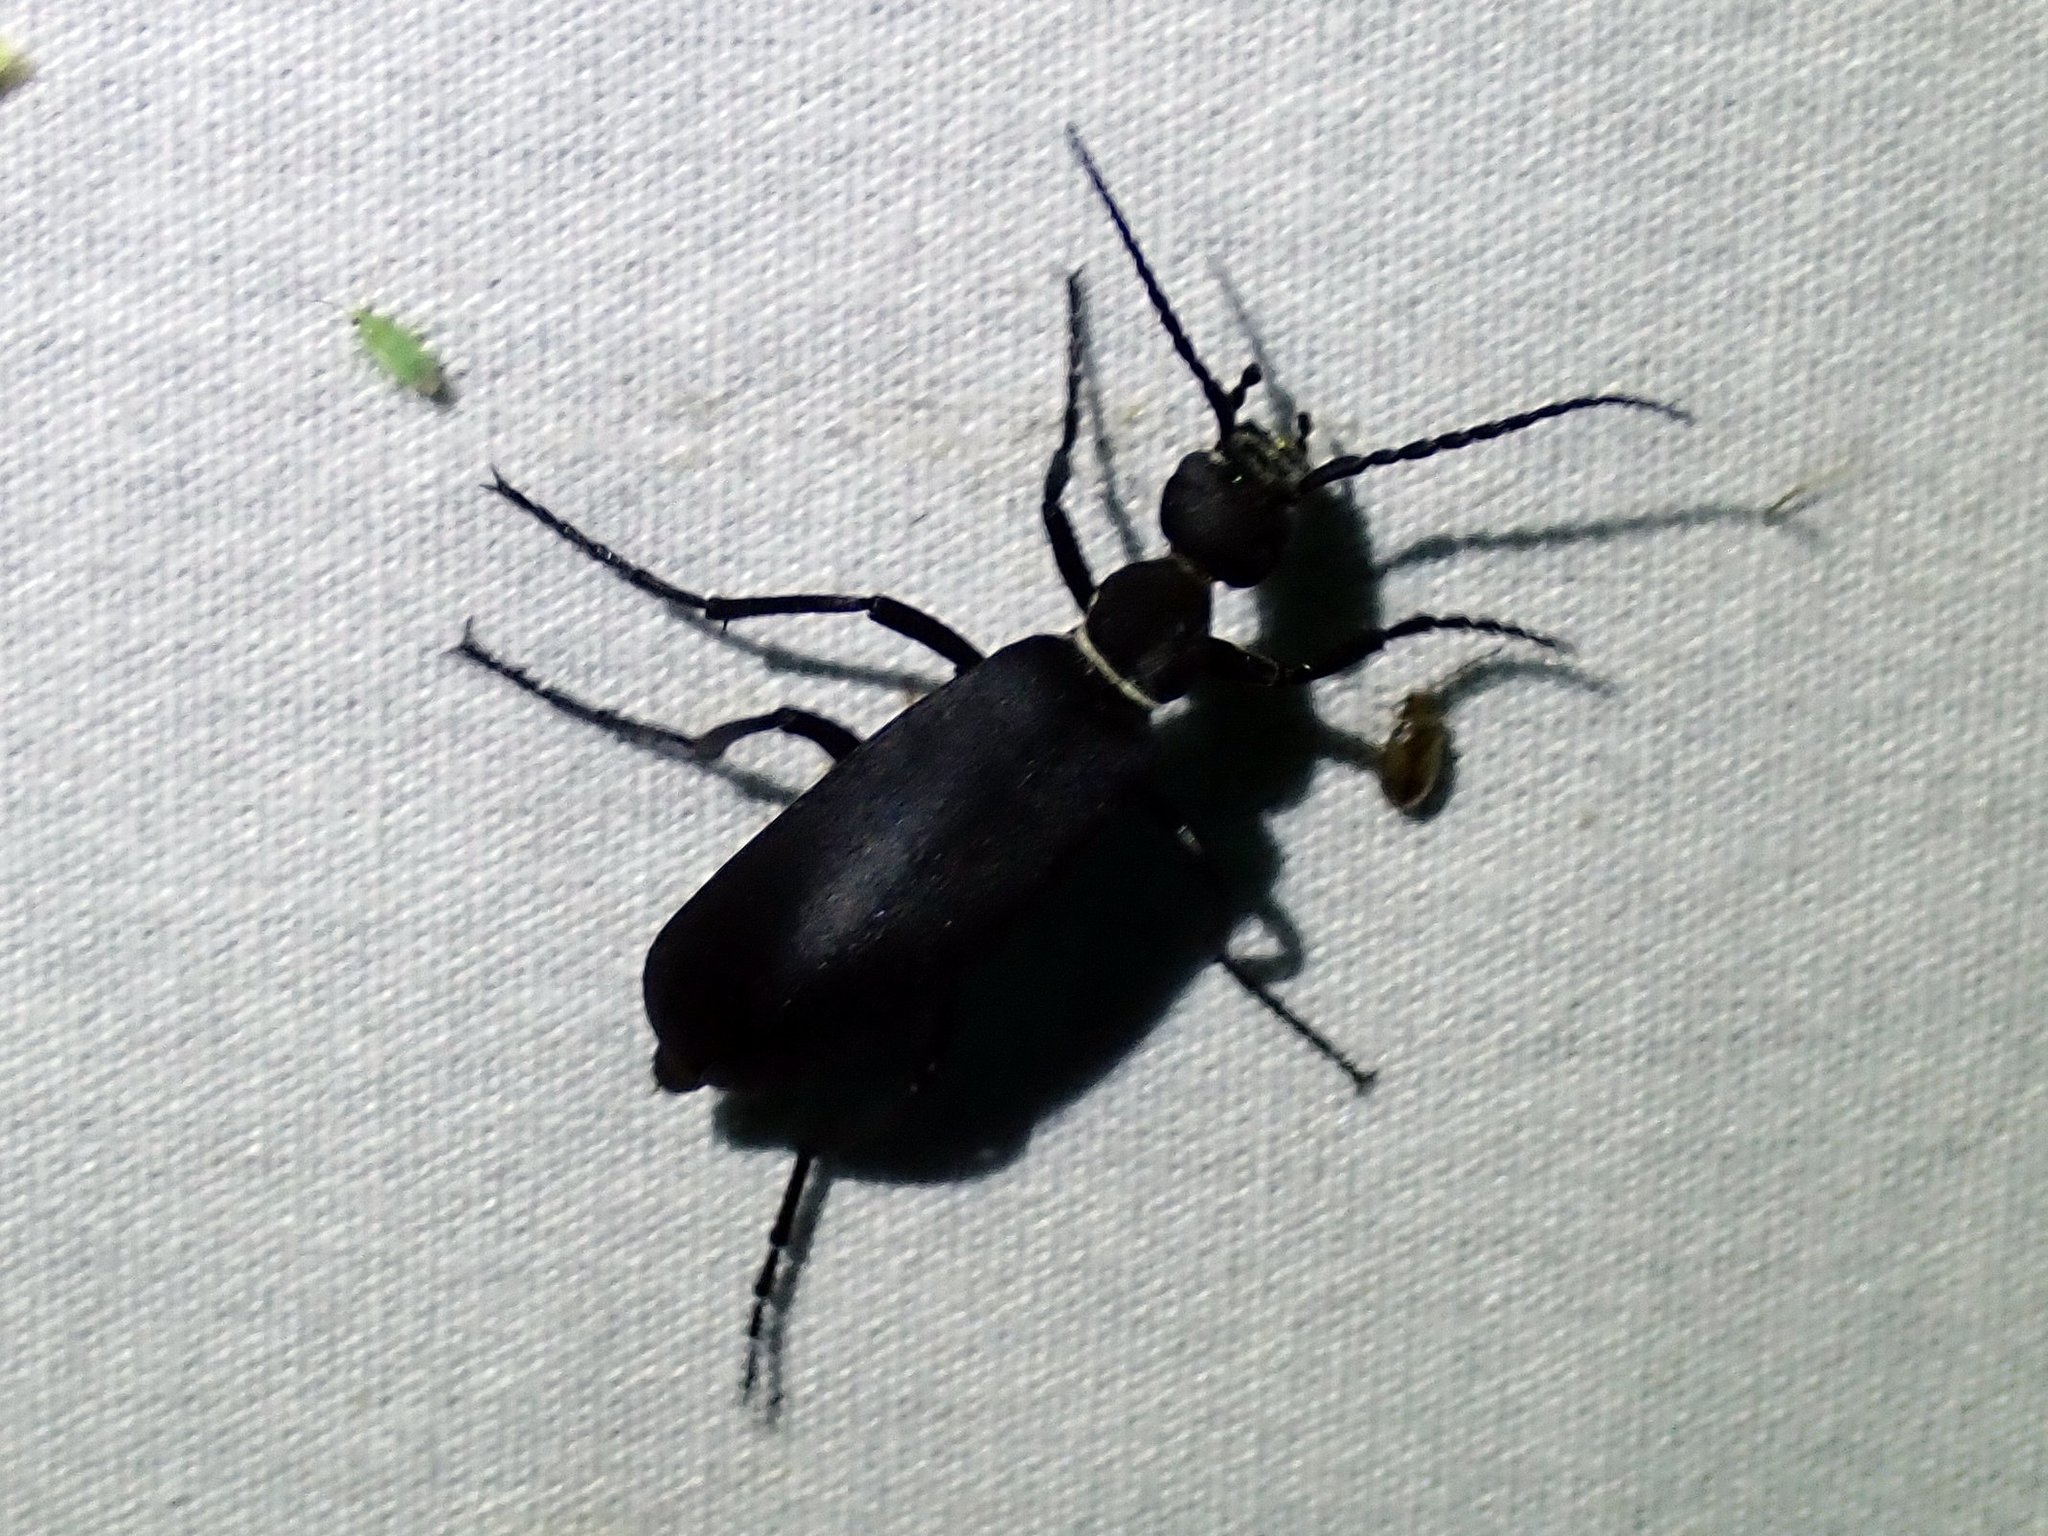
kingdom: Animalia
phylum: Arthropoda
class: Insecta
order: Coleoptera
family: Meloidae
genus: Epicauta
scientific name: Epicauta segmenta
